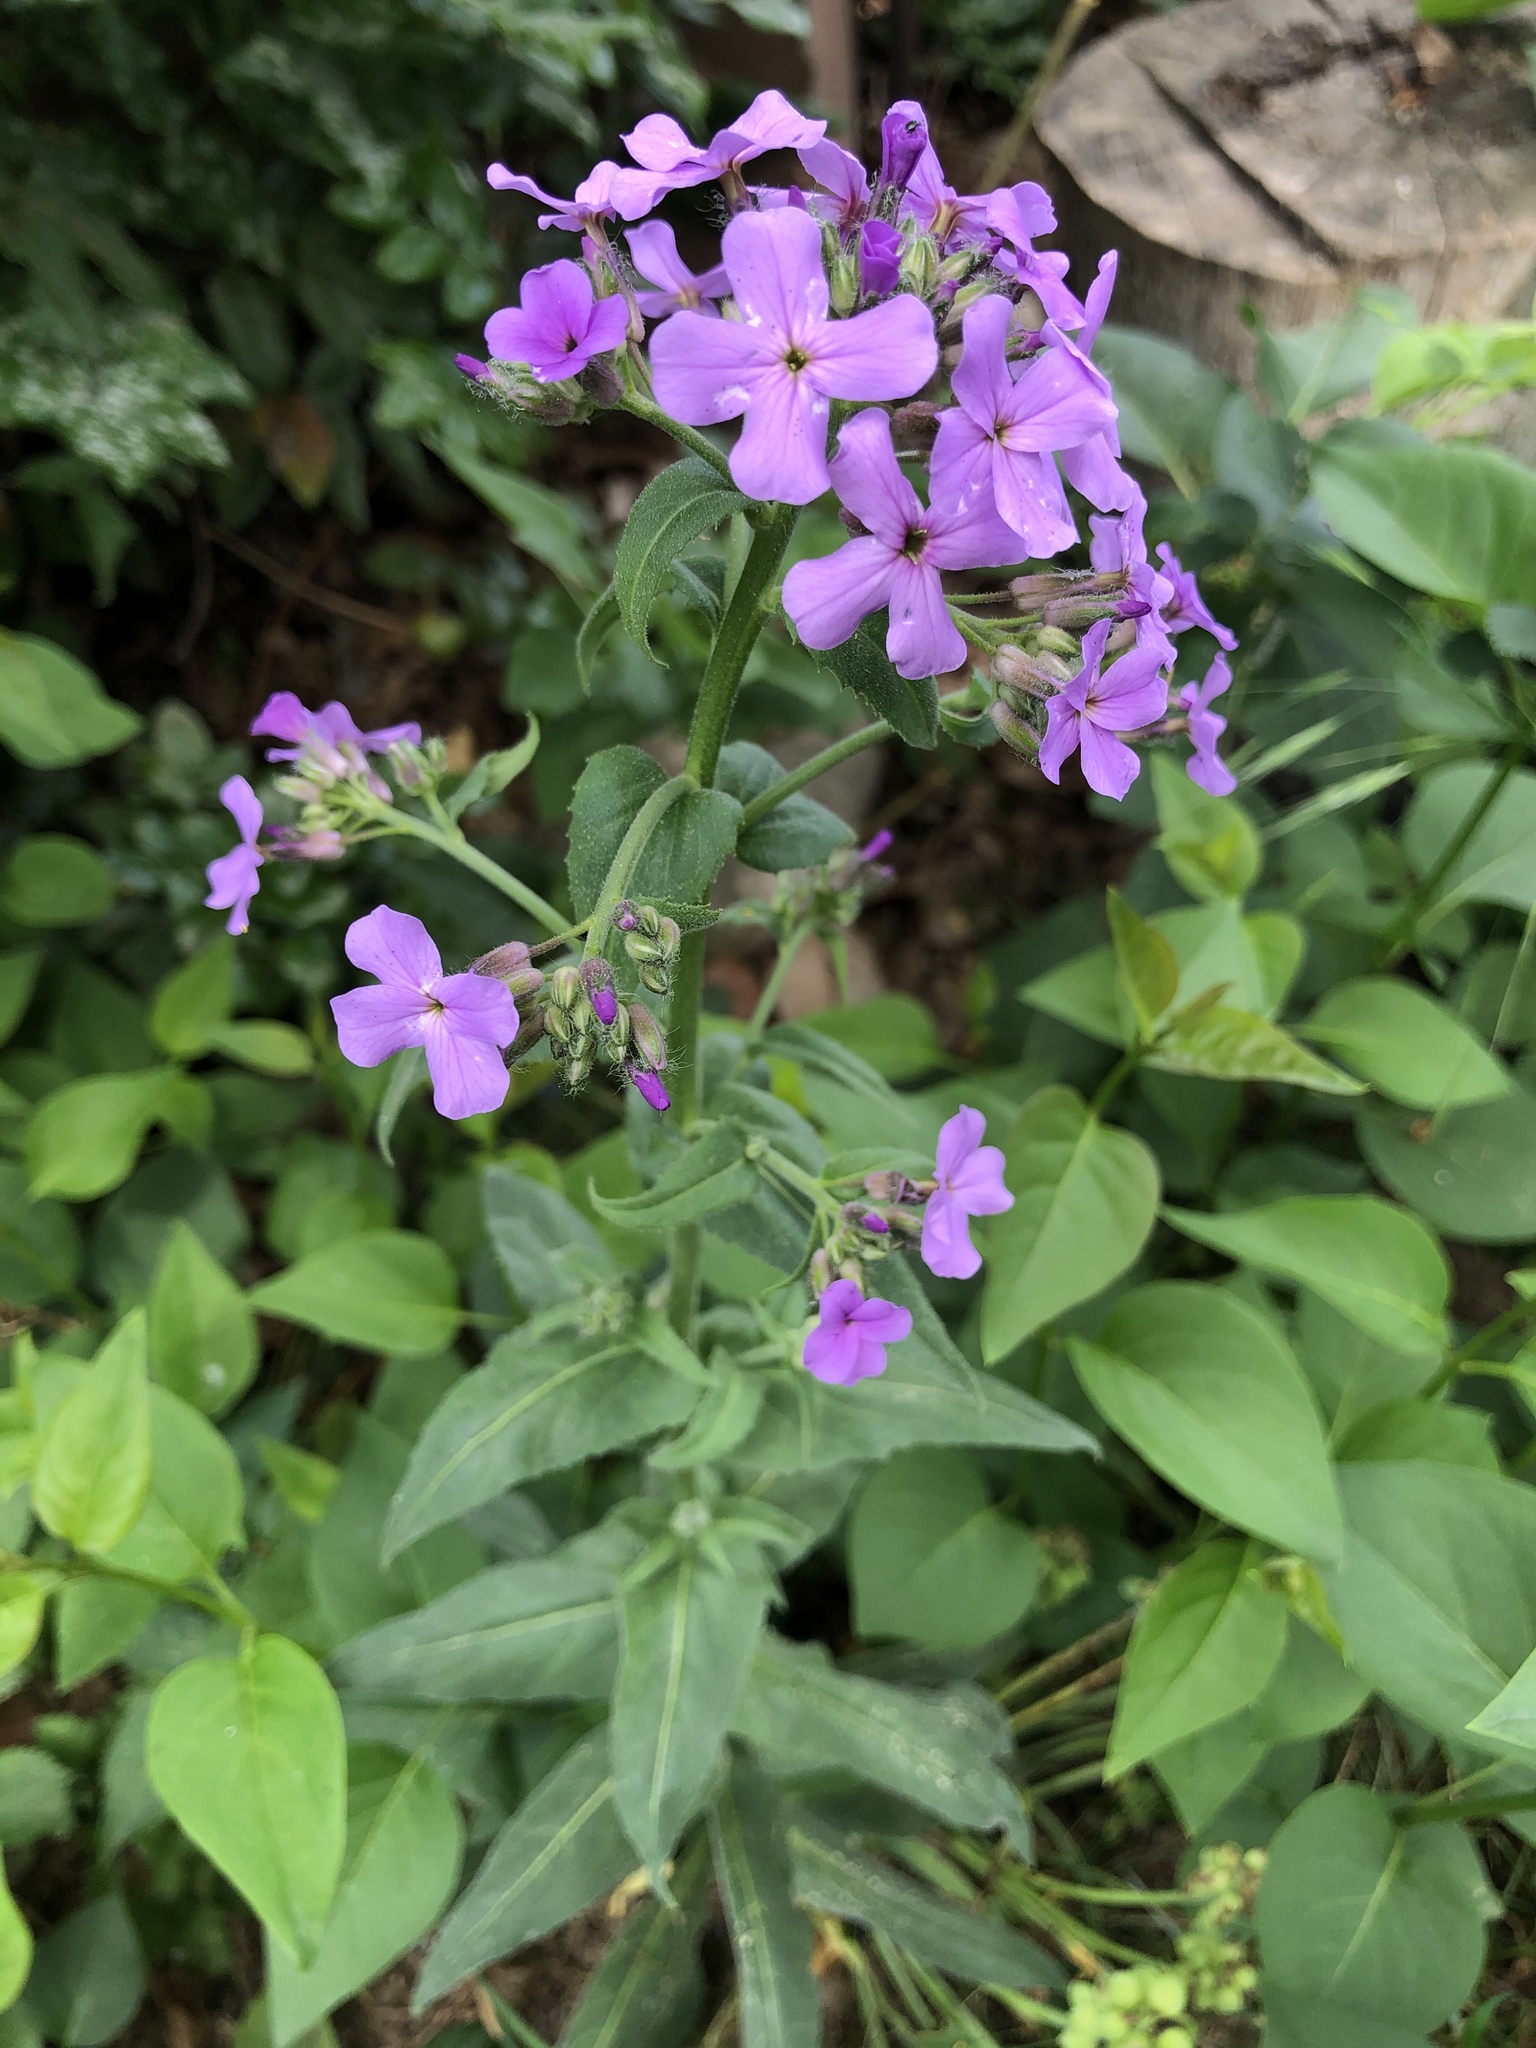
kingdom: Plantae
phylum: Tracheophyta
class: Magnoliopsida
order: Brassicales
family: Brassicaceae
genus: Hesperis
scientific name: Hesperis matronalis
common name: Dame's-violet
